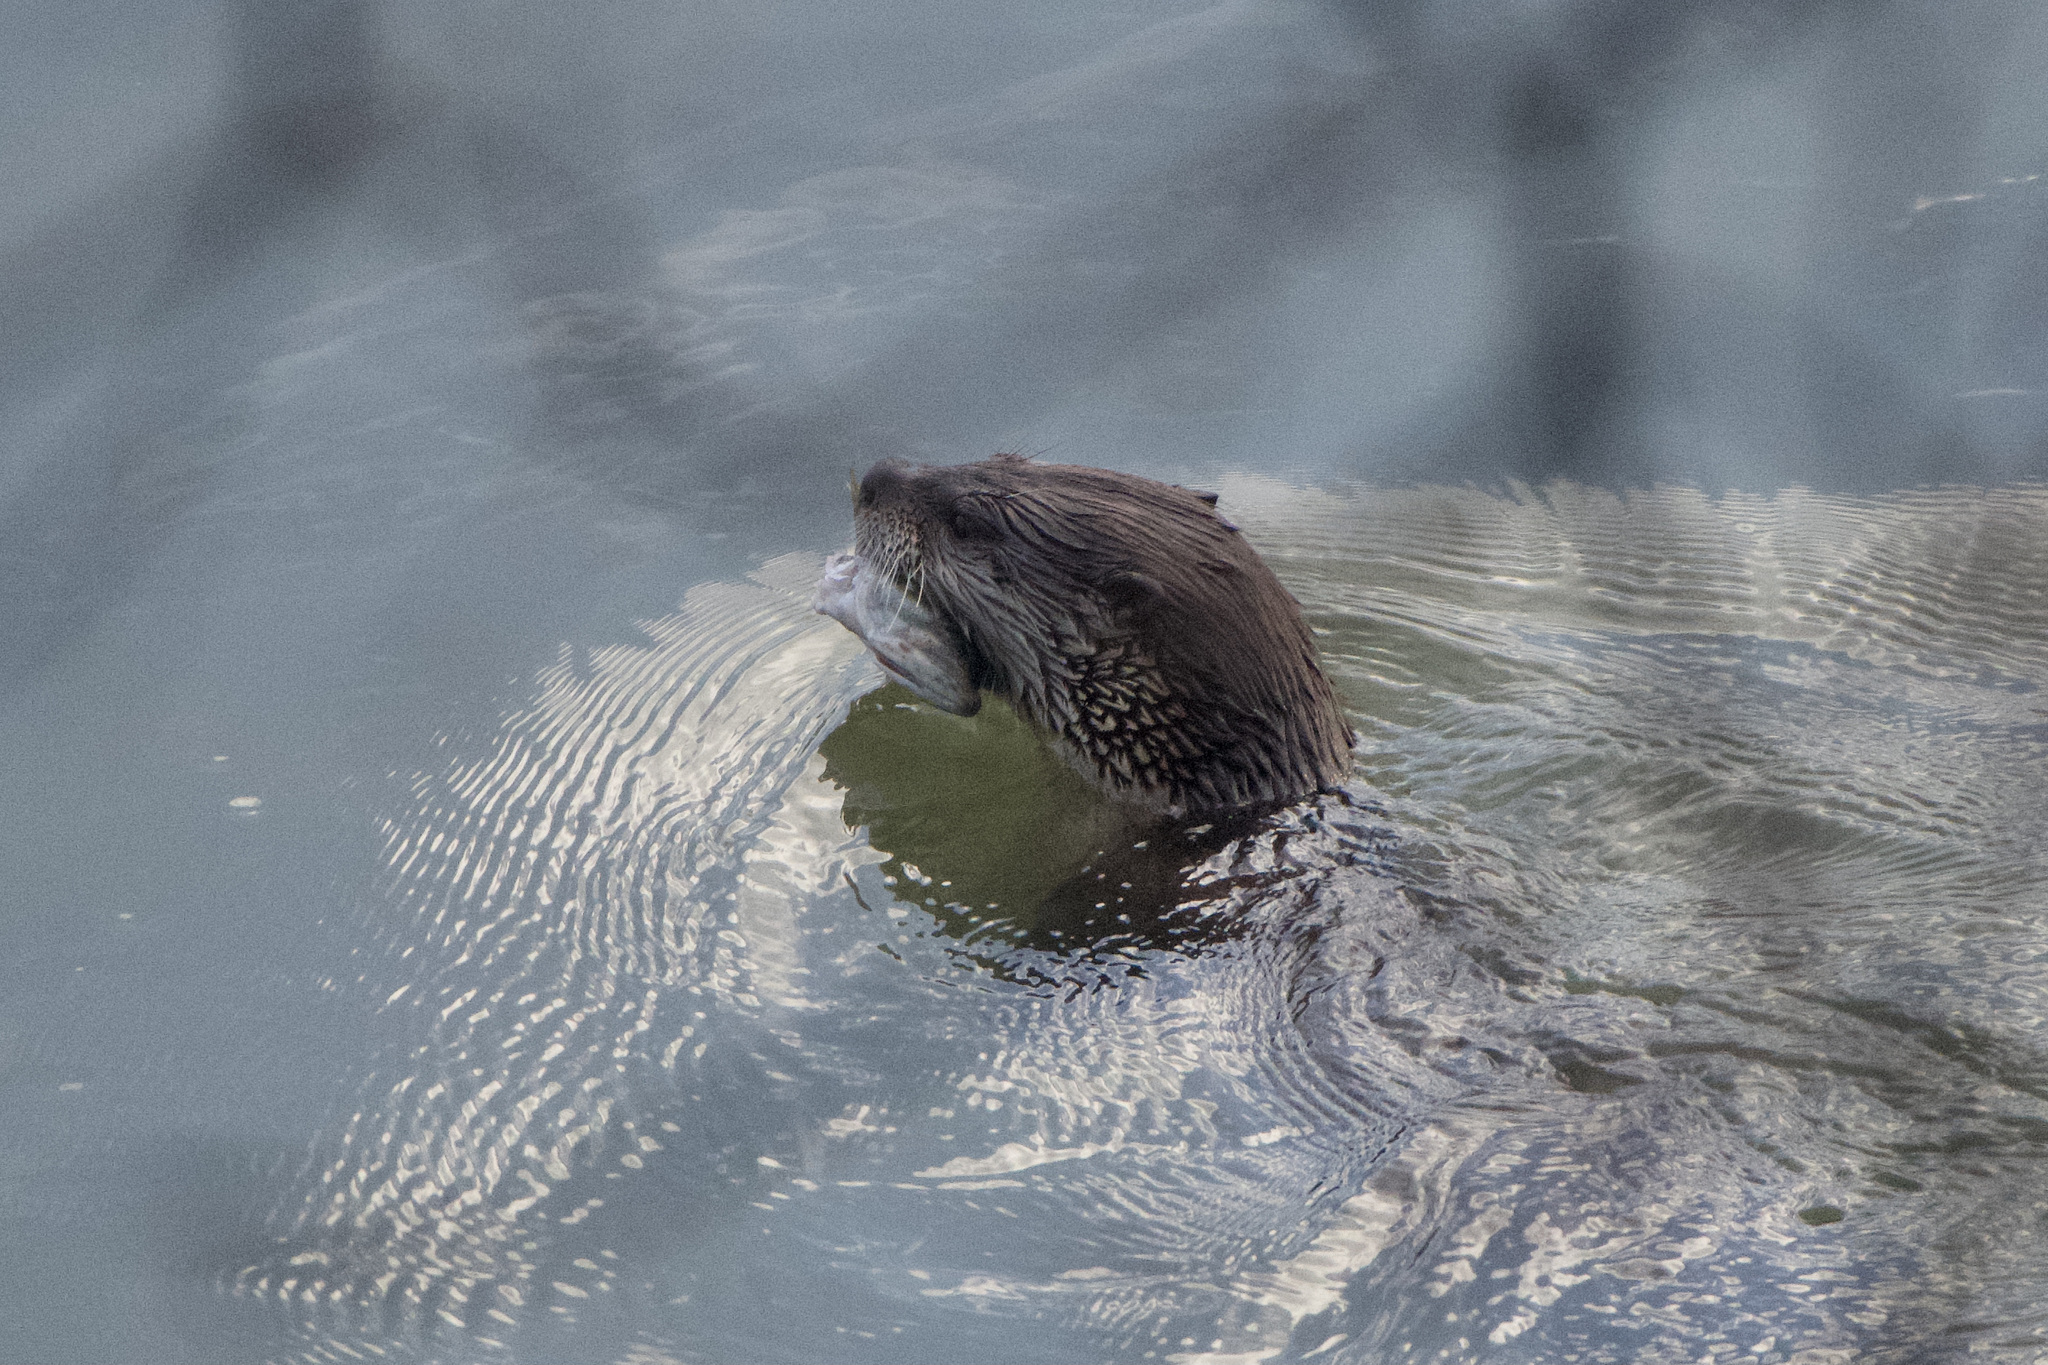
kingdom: Animalia
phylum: Chordata
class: Mammalia
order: Carnivora
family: Mustelidae
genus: Lontra
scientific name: Lontra canadensis
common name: North american river otter
